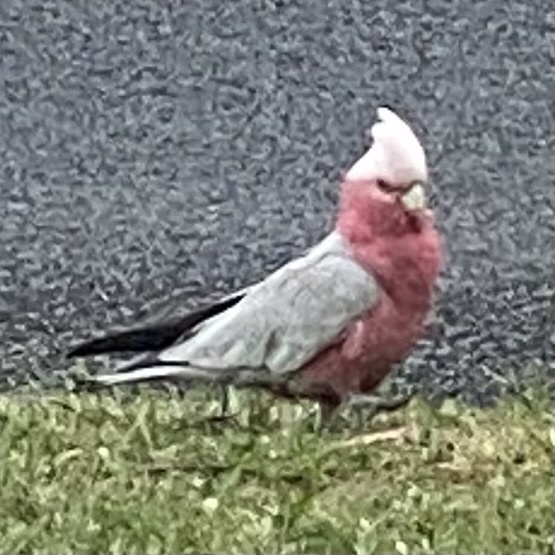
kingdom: Animalia
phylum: Chordata
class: Aves
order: Psittaciformes
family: Psittacidae
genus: Eolophus
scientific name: Eolophus roseicapilla
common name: Galah
